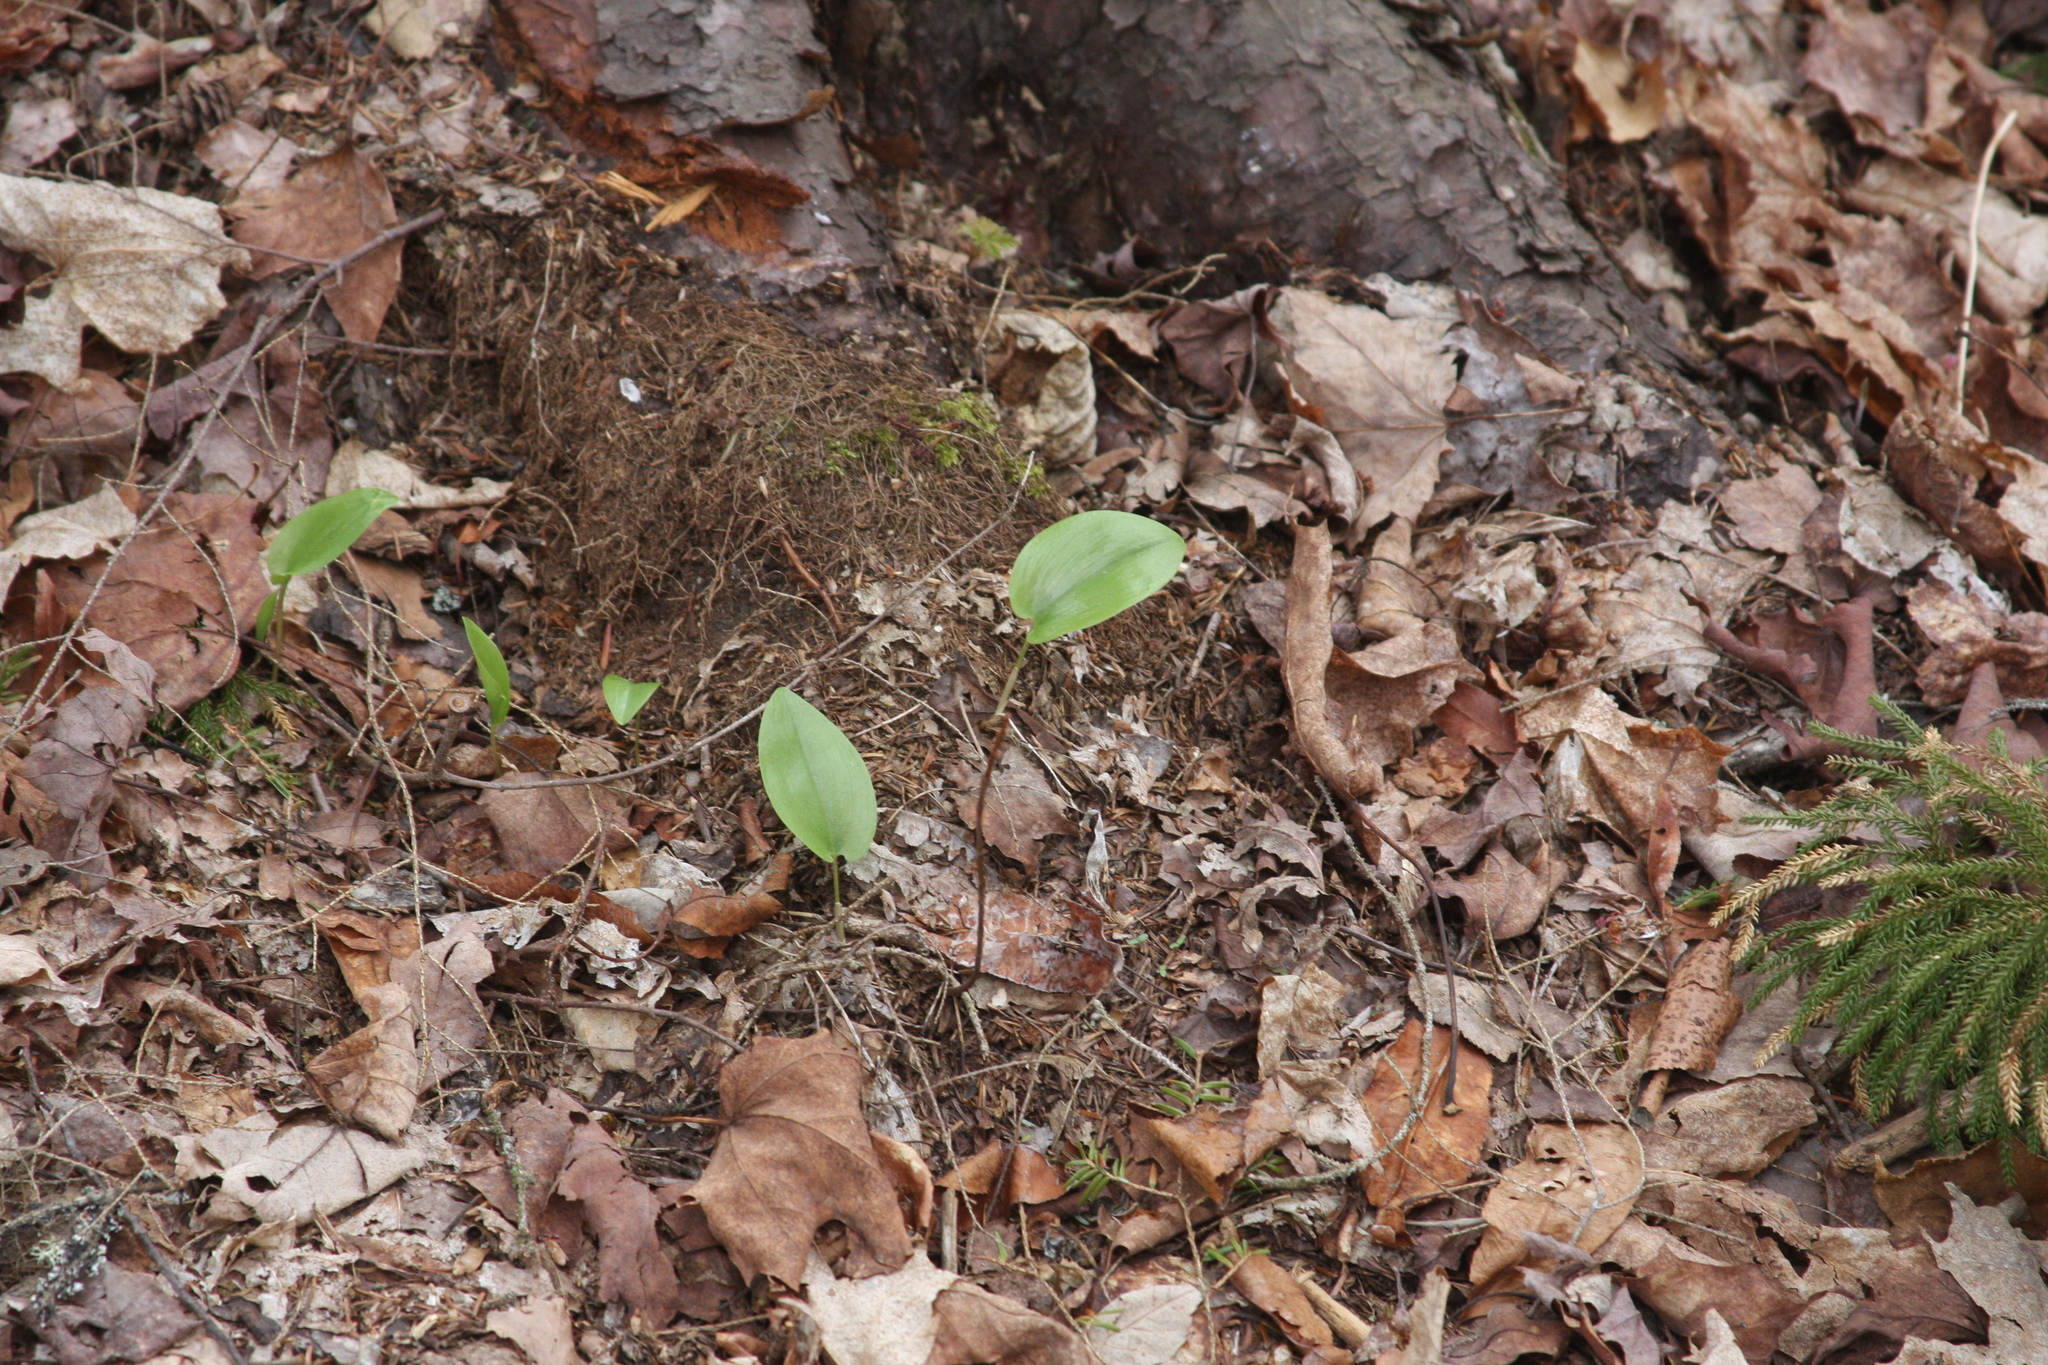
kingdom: Plantae
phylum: Tracheophyta
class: Liliopsida
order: Asparagales
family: Asparagaceae
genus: Maianthemum
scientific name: Maianthemum canadense
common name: False lily-of-the-valley
